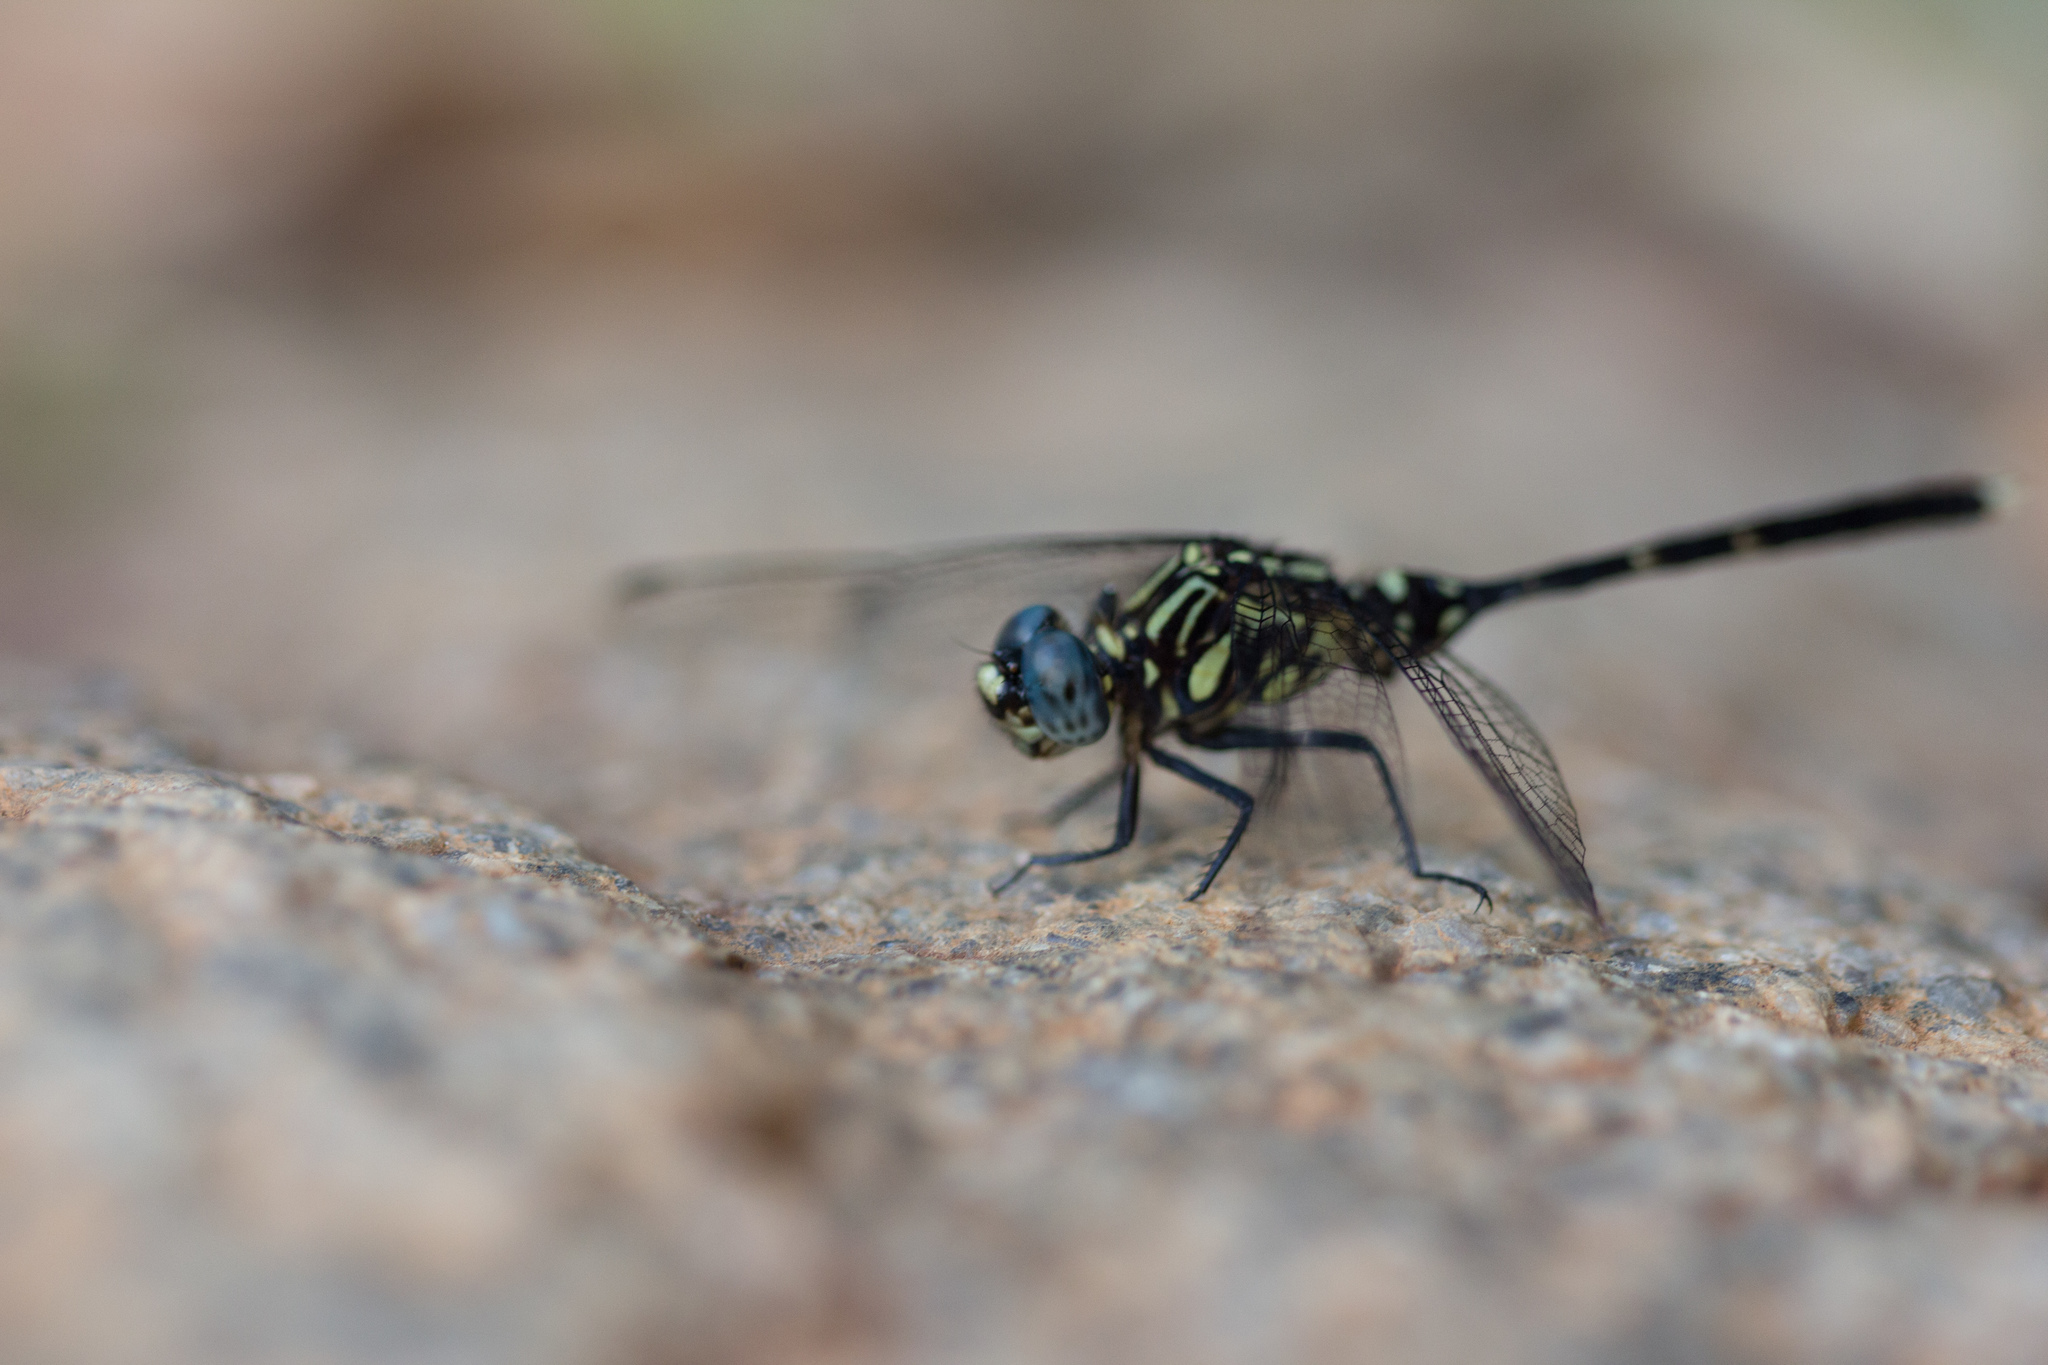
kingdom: Animalia
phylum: Arthropoda
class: Insecta
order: Odonata
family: Libellulidae
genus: Orthetrum
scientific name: Orthetrum stemmale
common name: Bold skimmer
